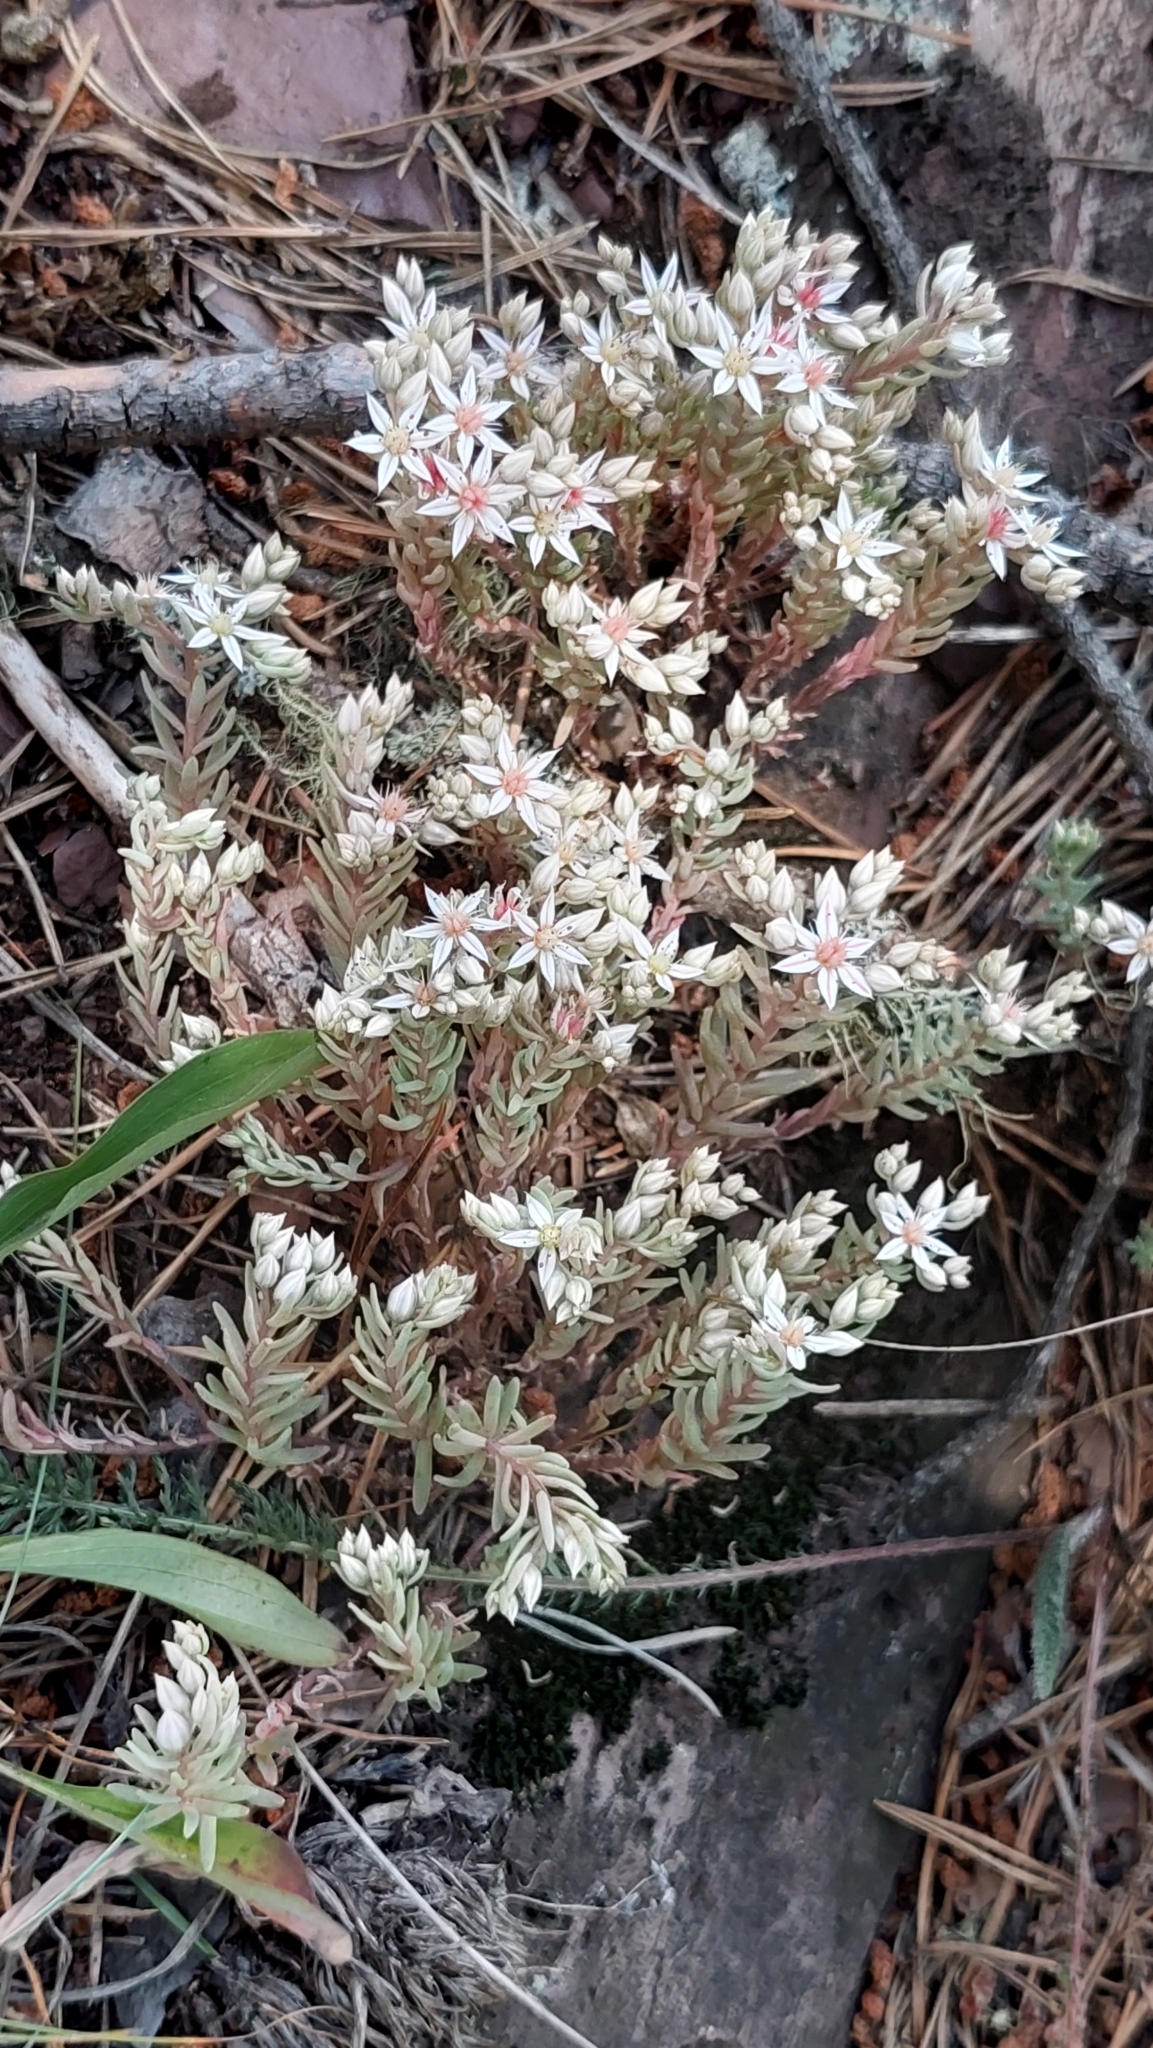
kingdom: Plantae
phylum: Tracheophyta
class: Magnoliopsida
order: Saxifragales
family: Crassulaceae
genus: Sedum
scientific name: Sedum hispanicum
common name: Spanish stonecrop
